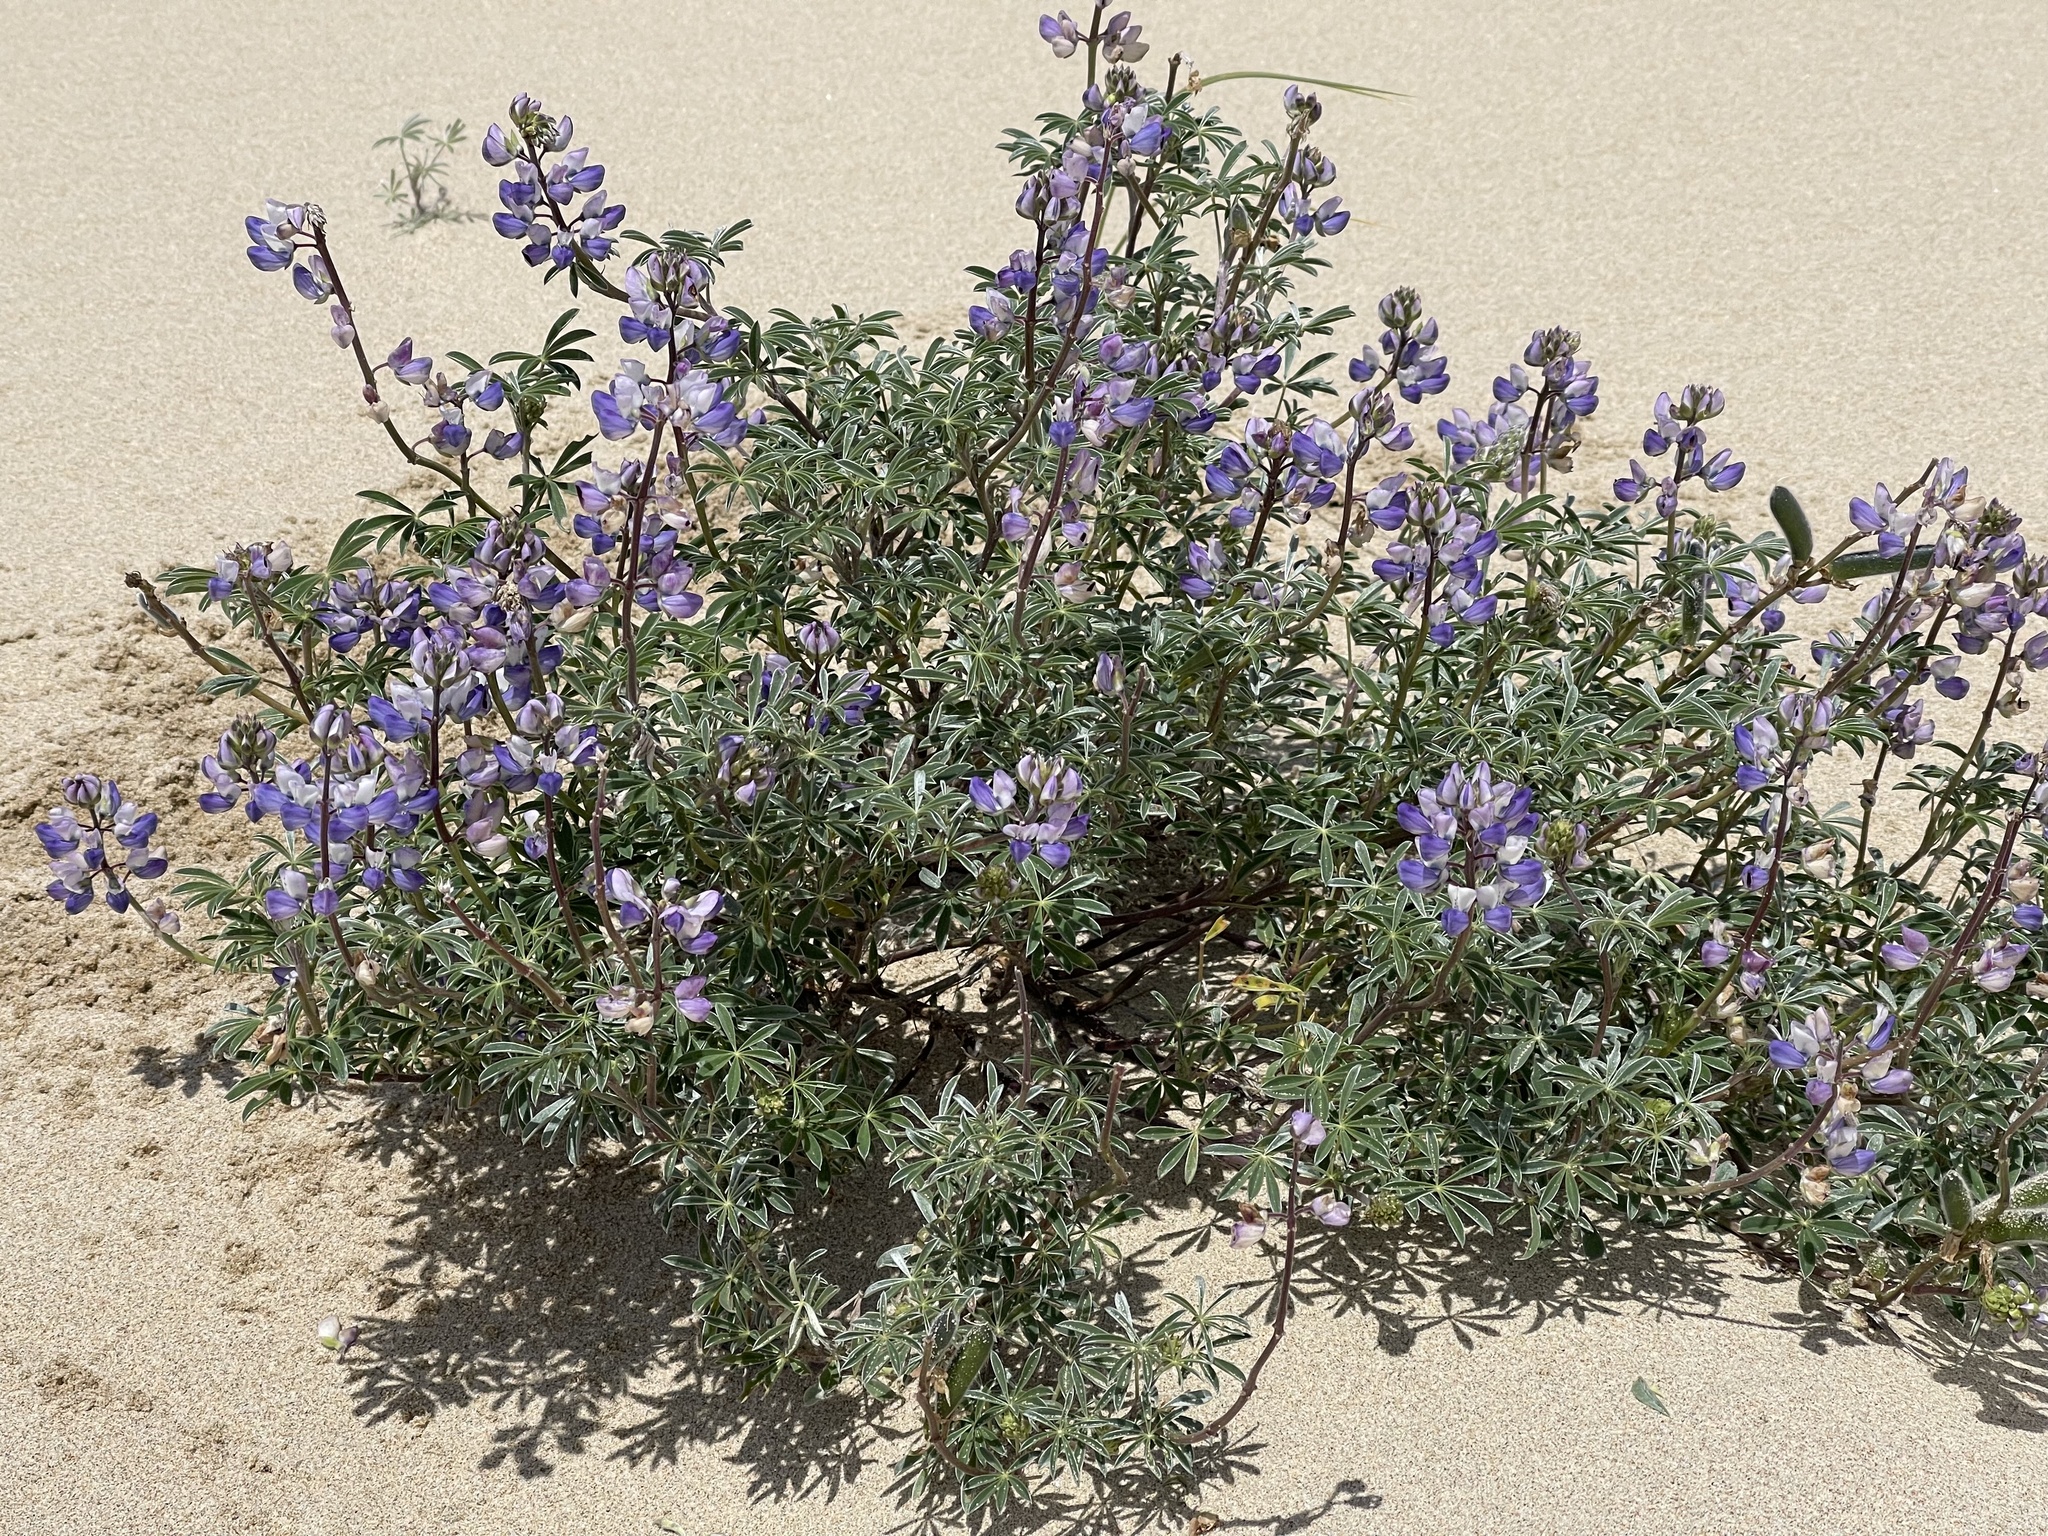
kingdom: Plantae
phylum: Tracheophyta
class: Magnoliopsida
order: Fabales
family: Fabaceae
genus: Lupinus
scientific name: Lupinus littoralis
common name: Seashore lupine
